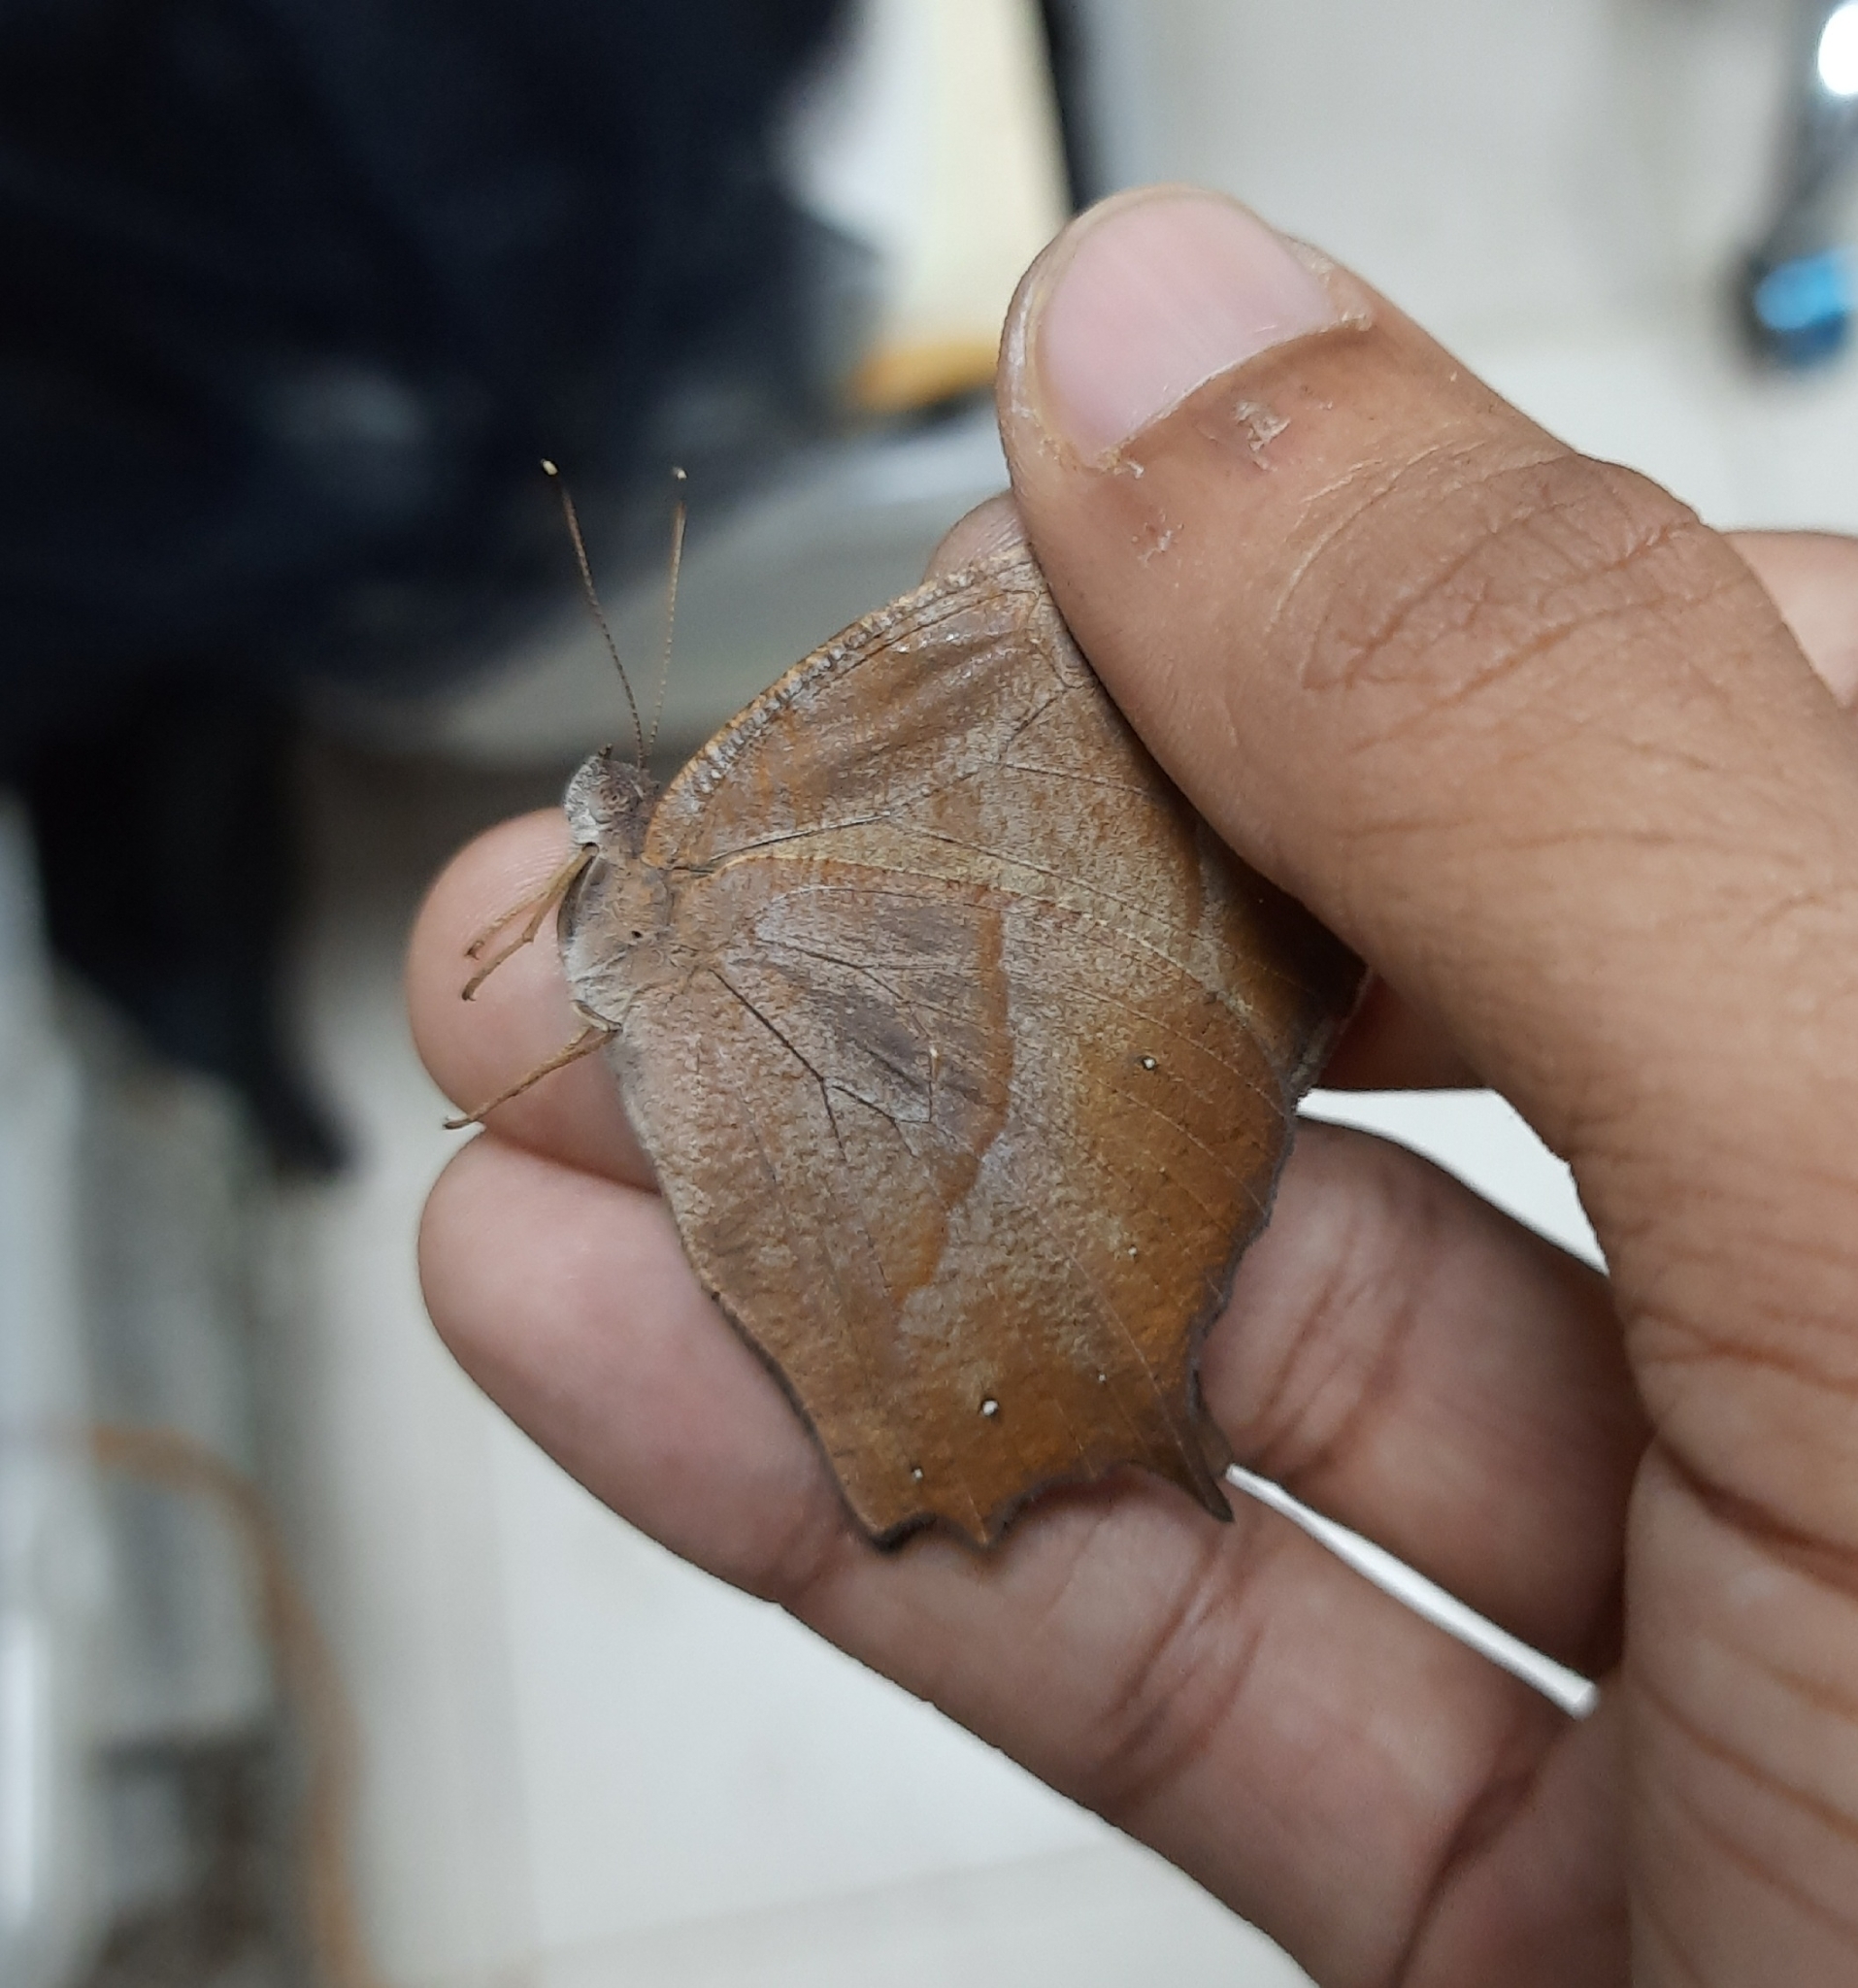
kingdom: Animalia
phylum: Arthropoda
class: Insecta
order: Lepidoptera
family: Nymphalidae
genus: Melanitis
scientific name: Melanitis zitenius
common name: Great evening brown
